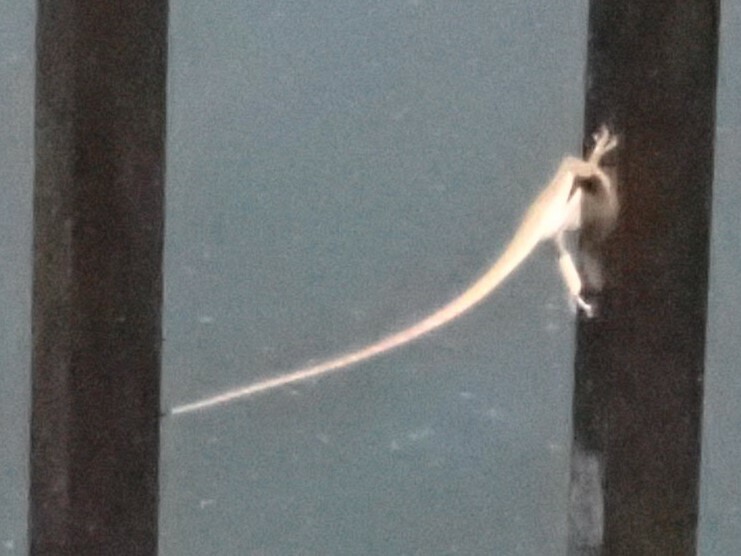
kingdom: Animalia
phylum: Chordata
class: Squamata
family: Dactyloidae
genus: Anolis
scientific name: Anolis carolinensis
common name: Green anole
